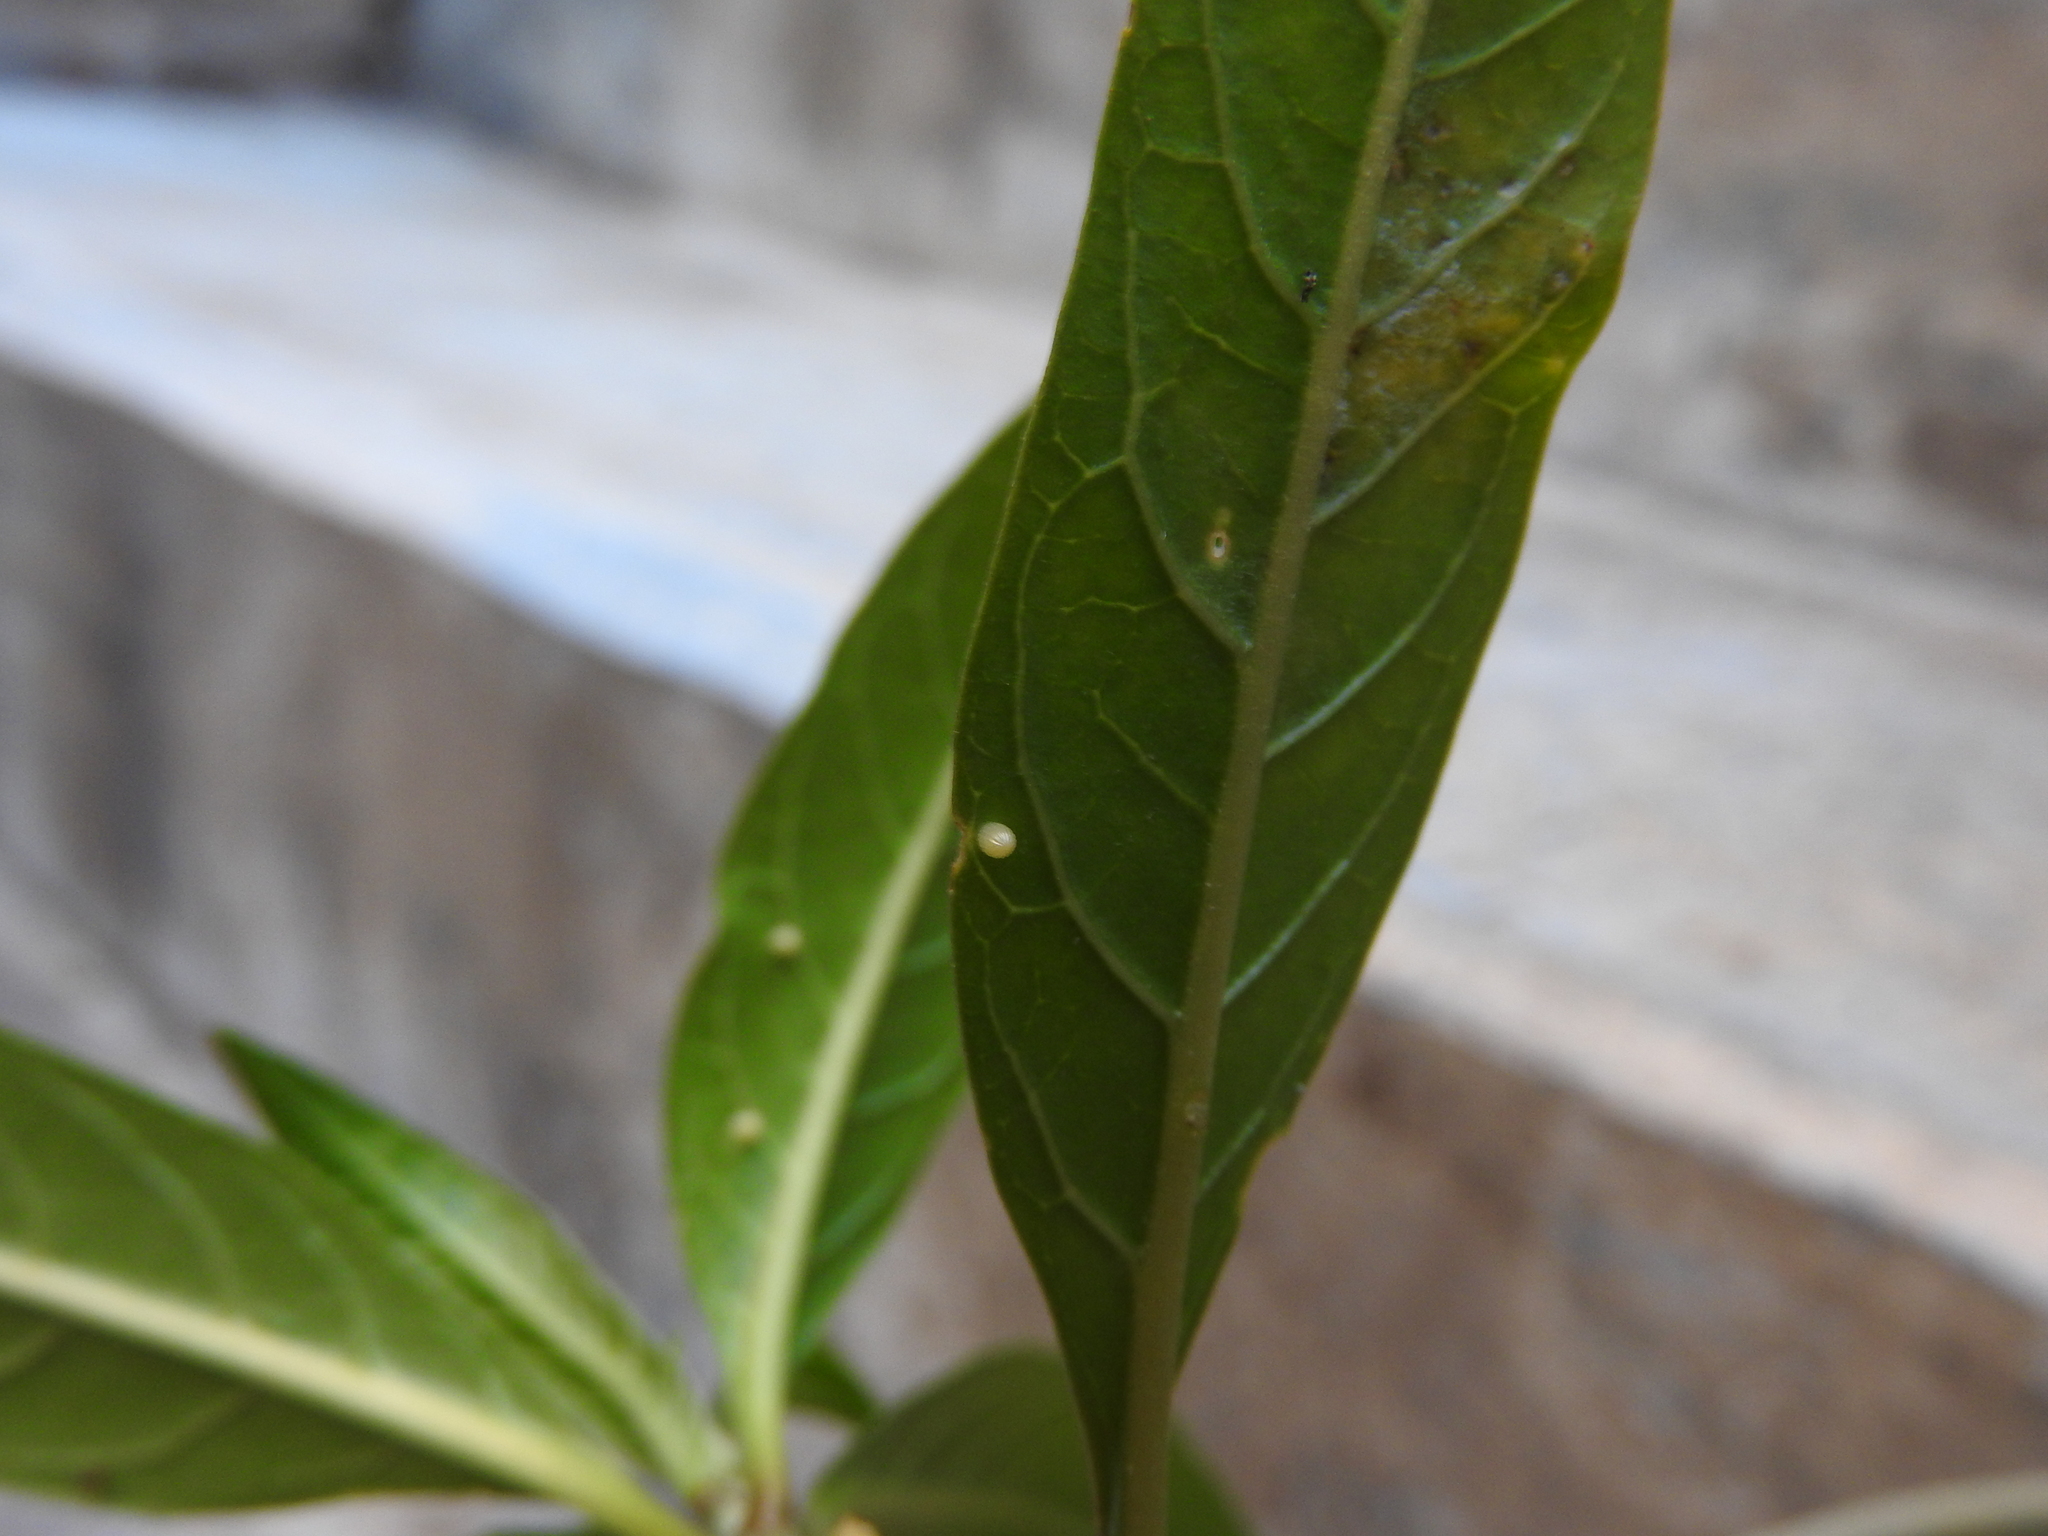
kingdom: Animalia
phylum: Arthropoda
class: Insecta
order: Lepidoptera
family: Nymphalidae
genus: Danaus
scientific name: Danaus plexippus
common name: Monarch
